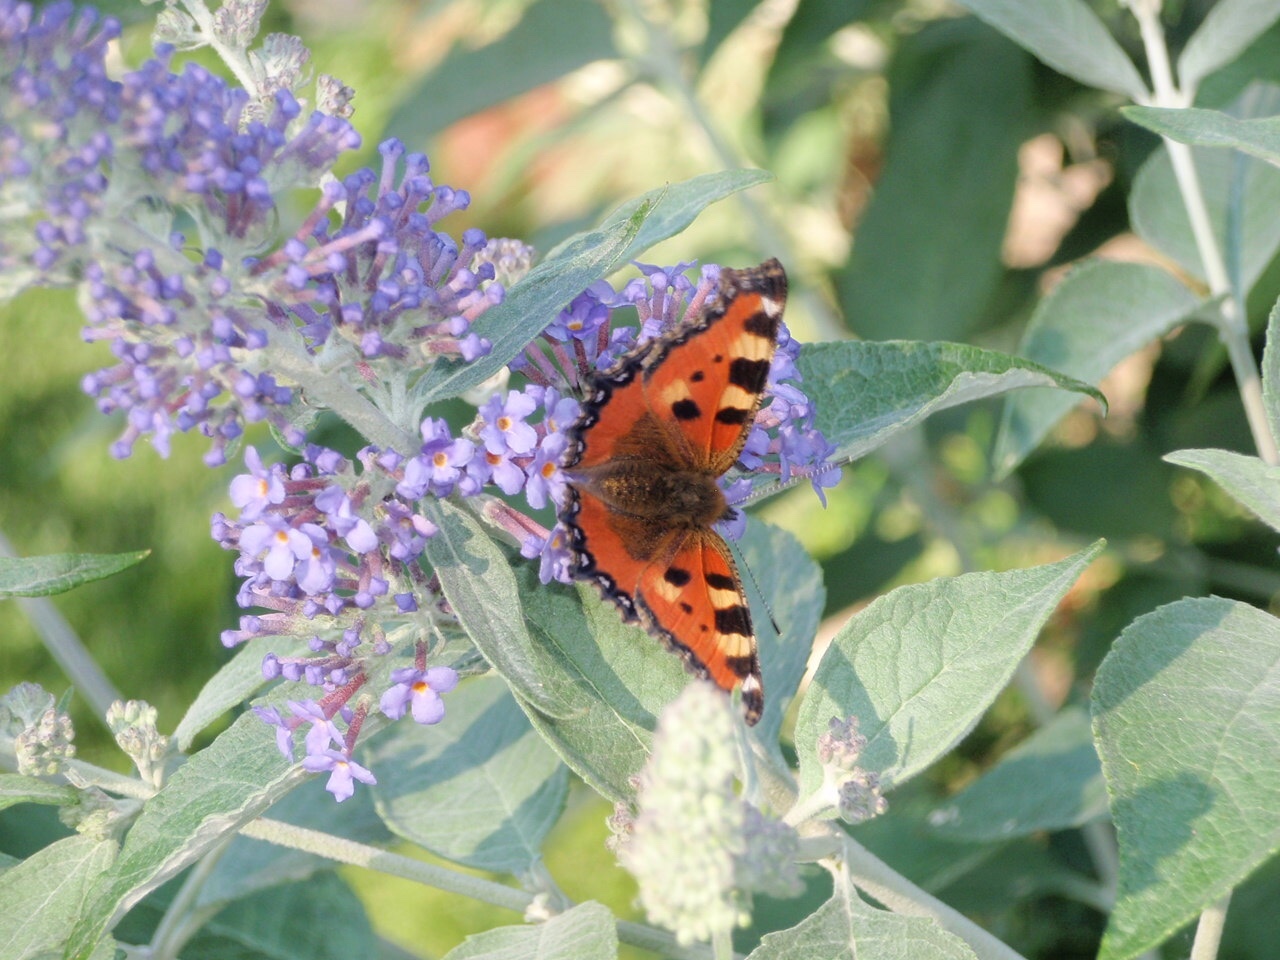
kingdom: Animalia
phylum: Arthropoda
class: Insecta
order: Lepidoptera
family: Nymphalidae
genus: Aglais
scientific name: Aglais urticae
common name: Small tortoiseshell
